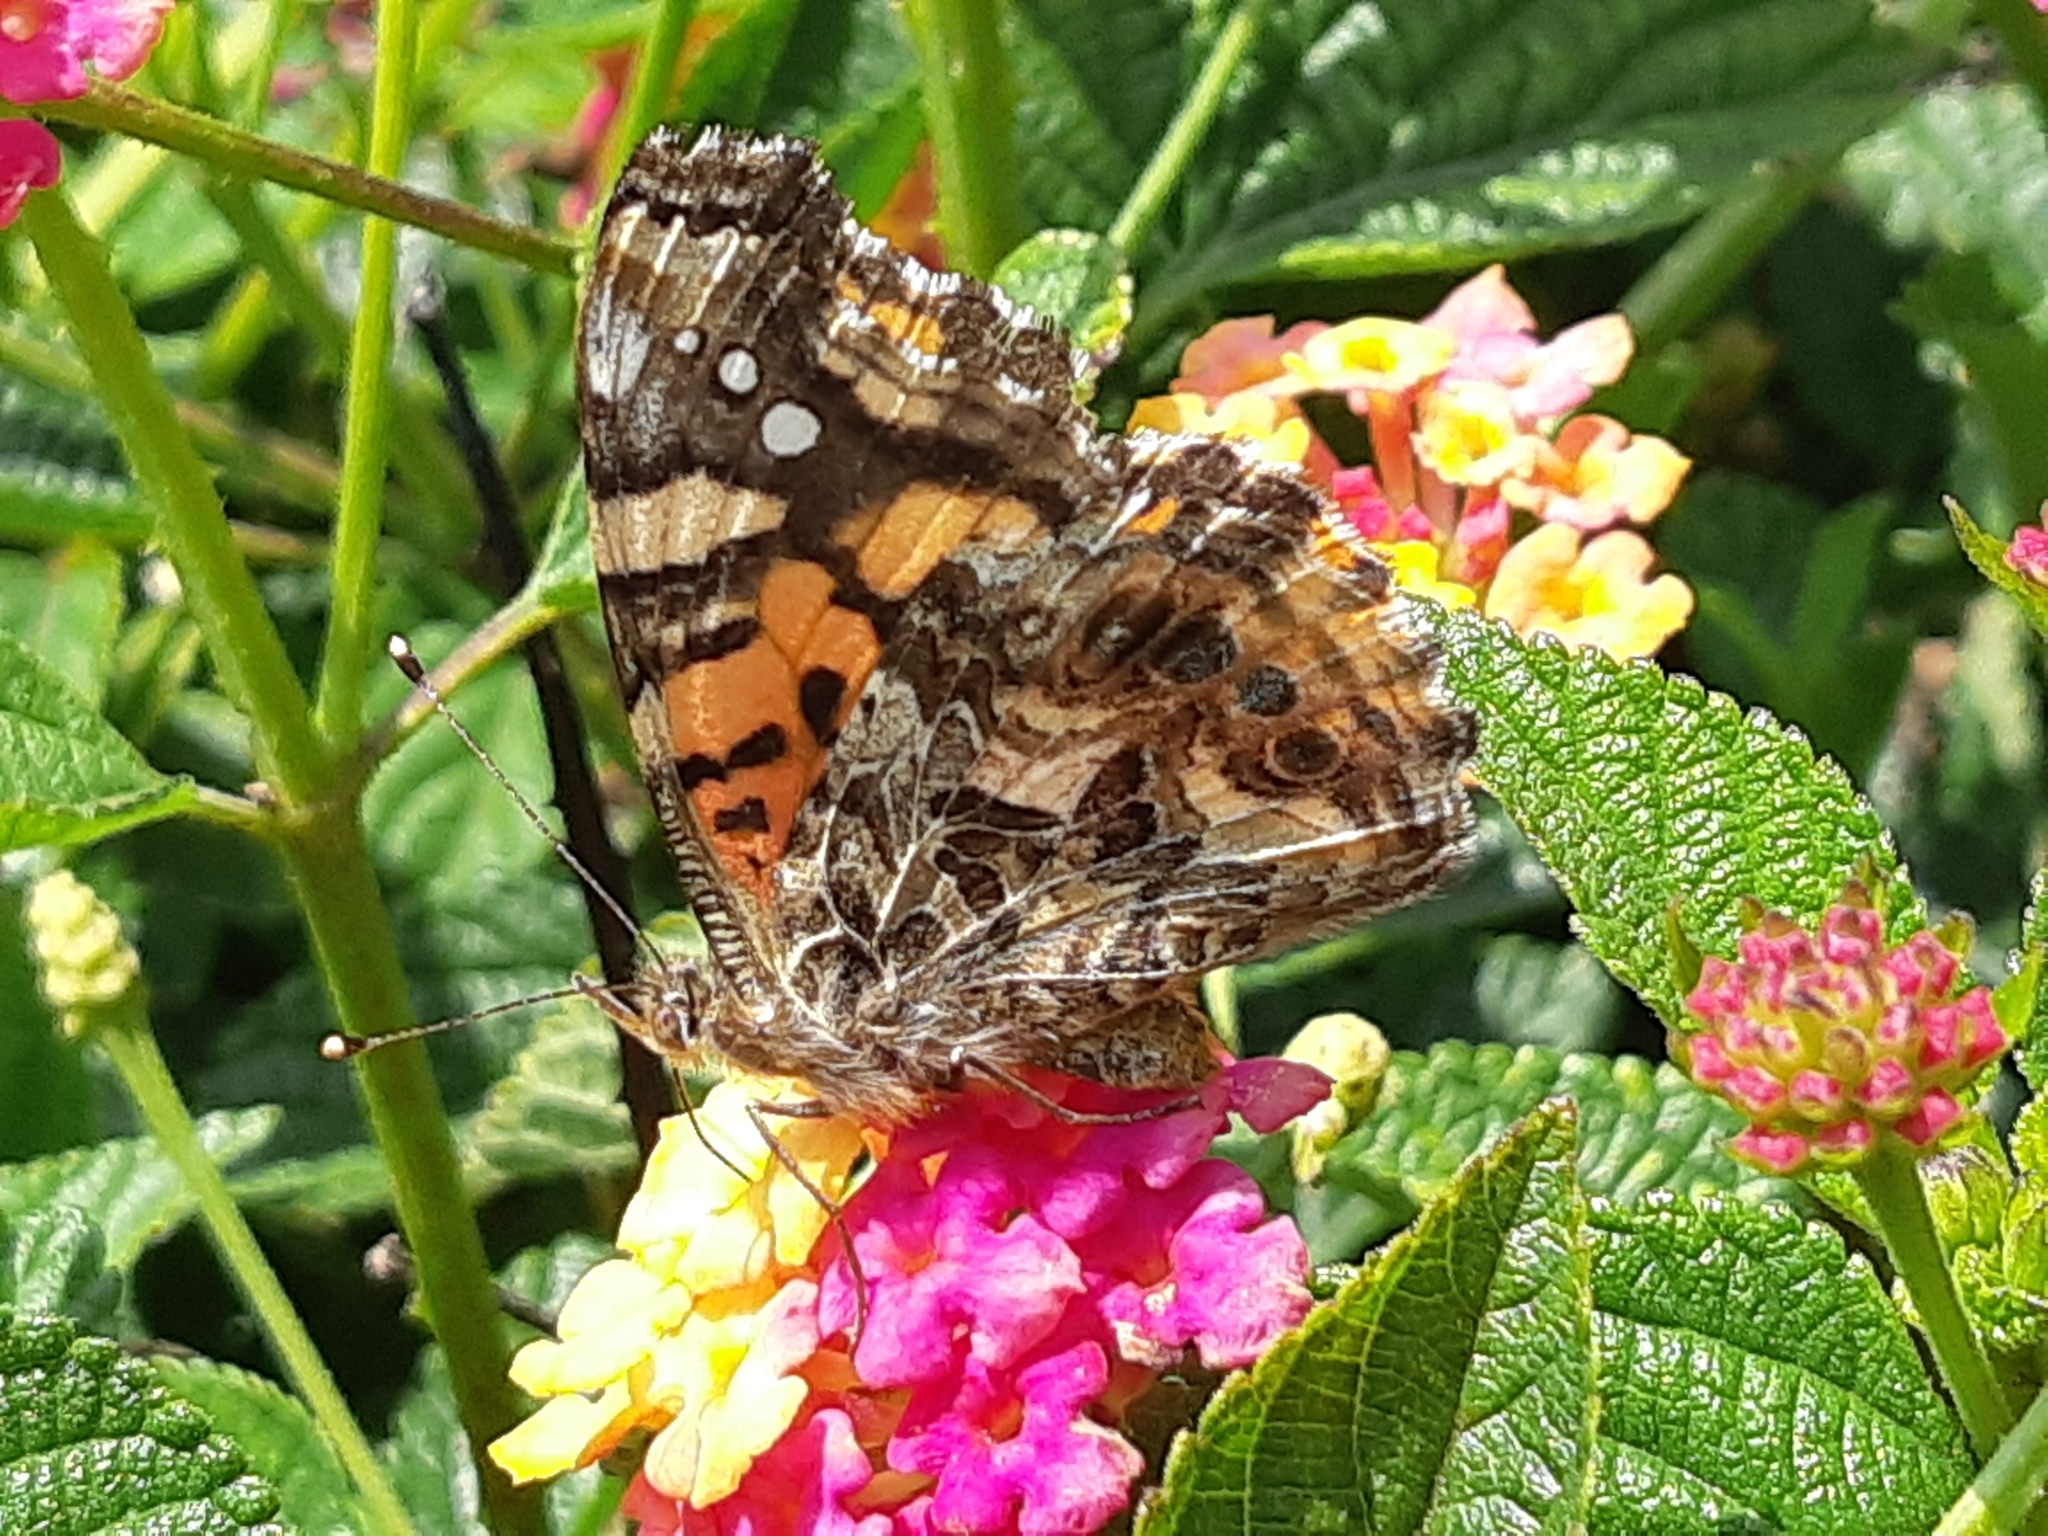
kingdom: Animalia
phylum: Arthropoda
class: Insecta
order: Lepidoptera
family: Nymphalidae
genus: Vanessa
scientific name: Vanessa carye
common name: Subtropical lady
